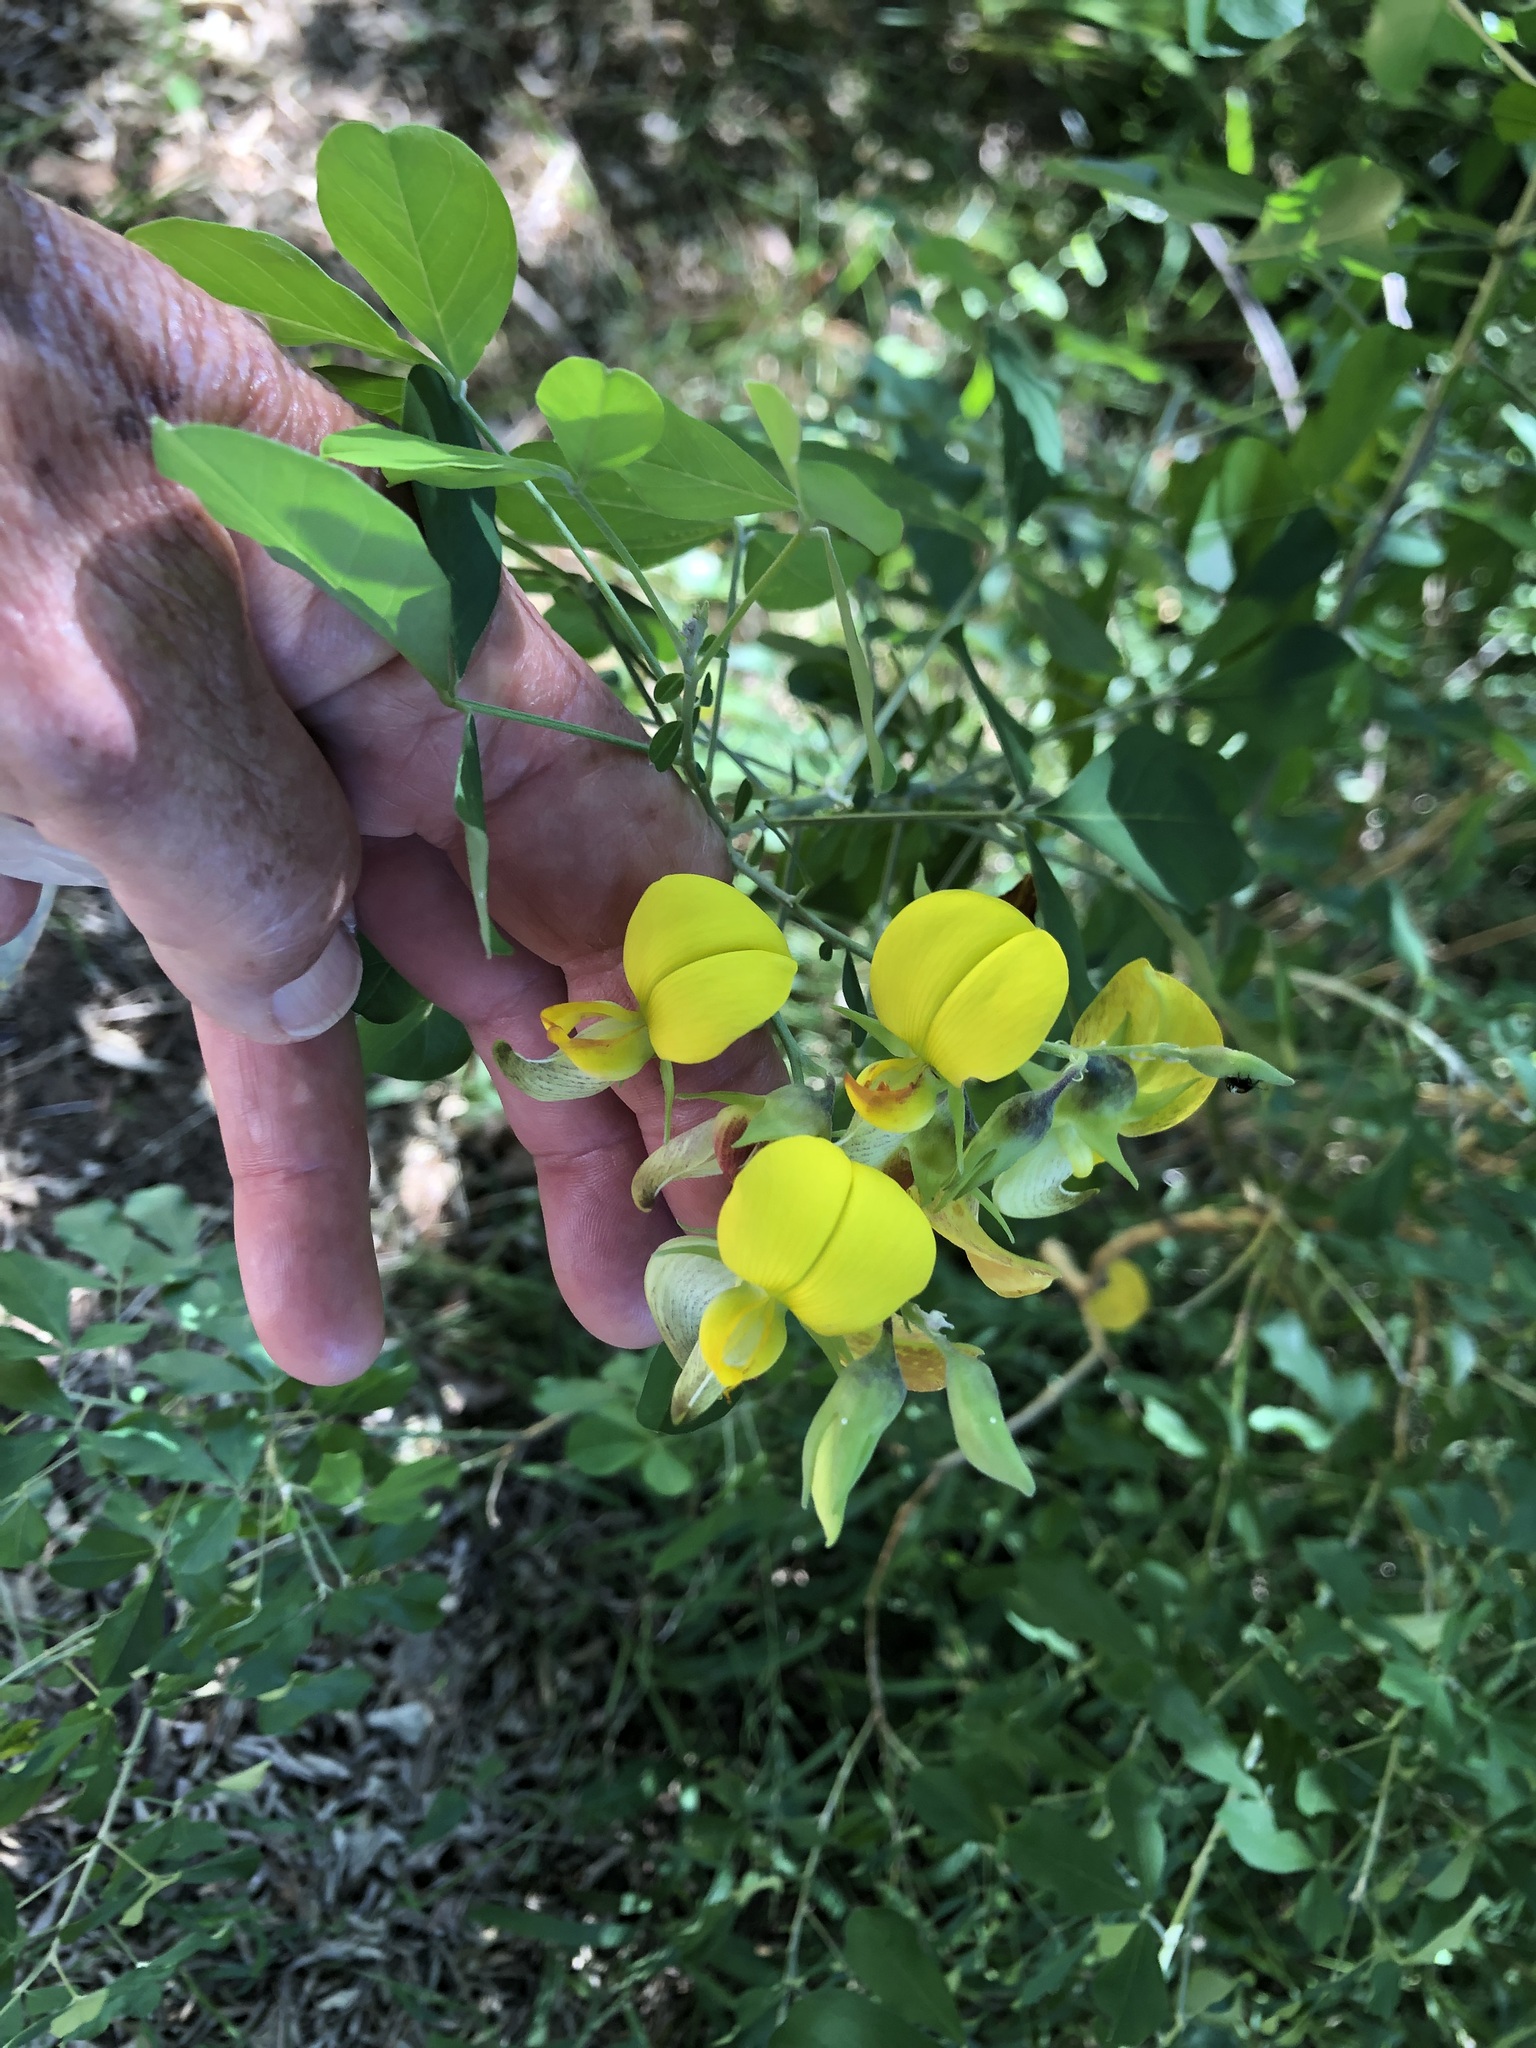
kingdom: Plantae
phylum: Tracheophyta
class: Magnoliopsida
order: Fabales
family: Fabaceae
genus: Crotalaria
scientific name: Crotalaria capensis
